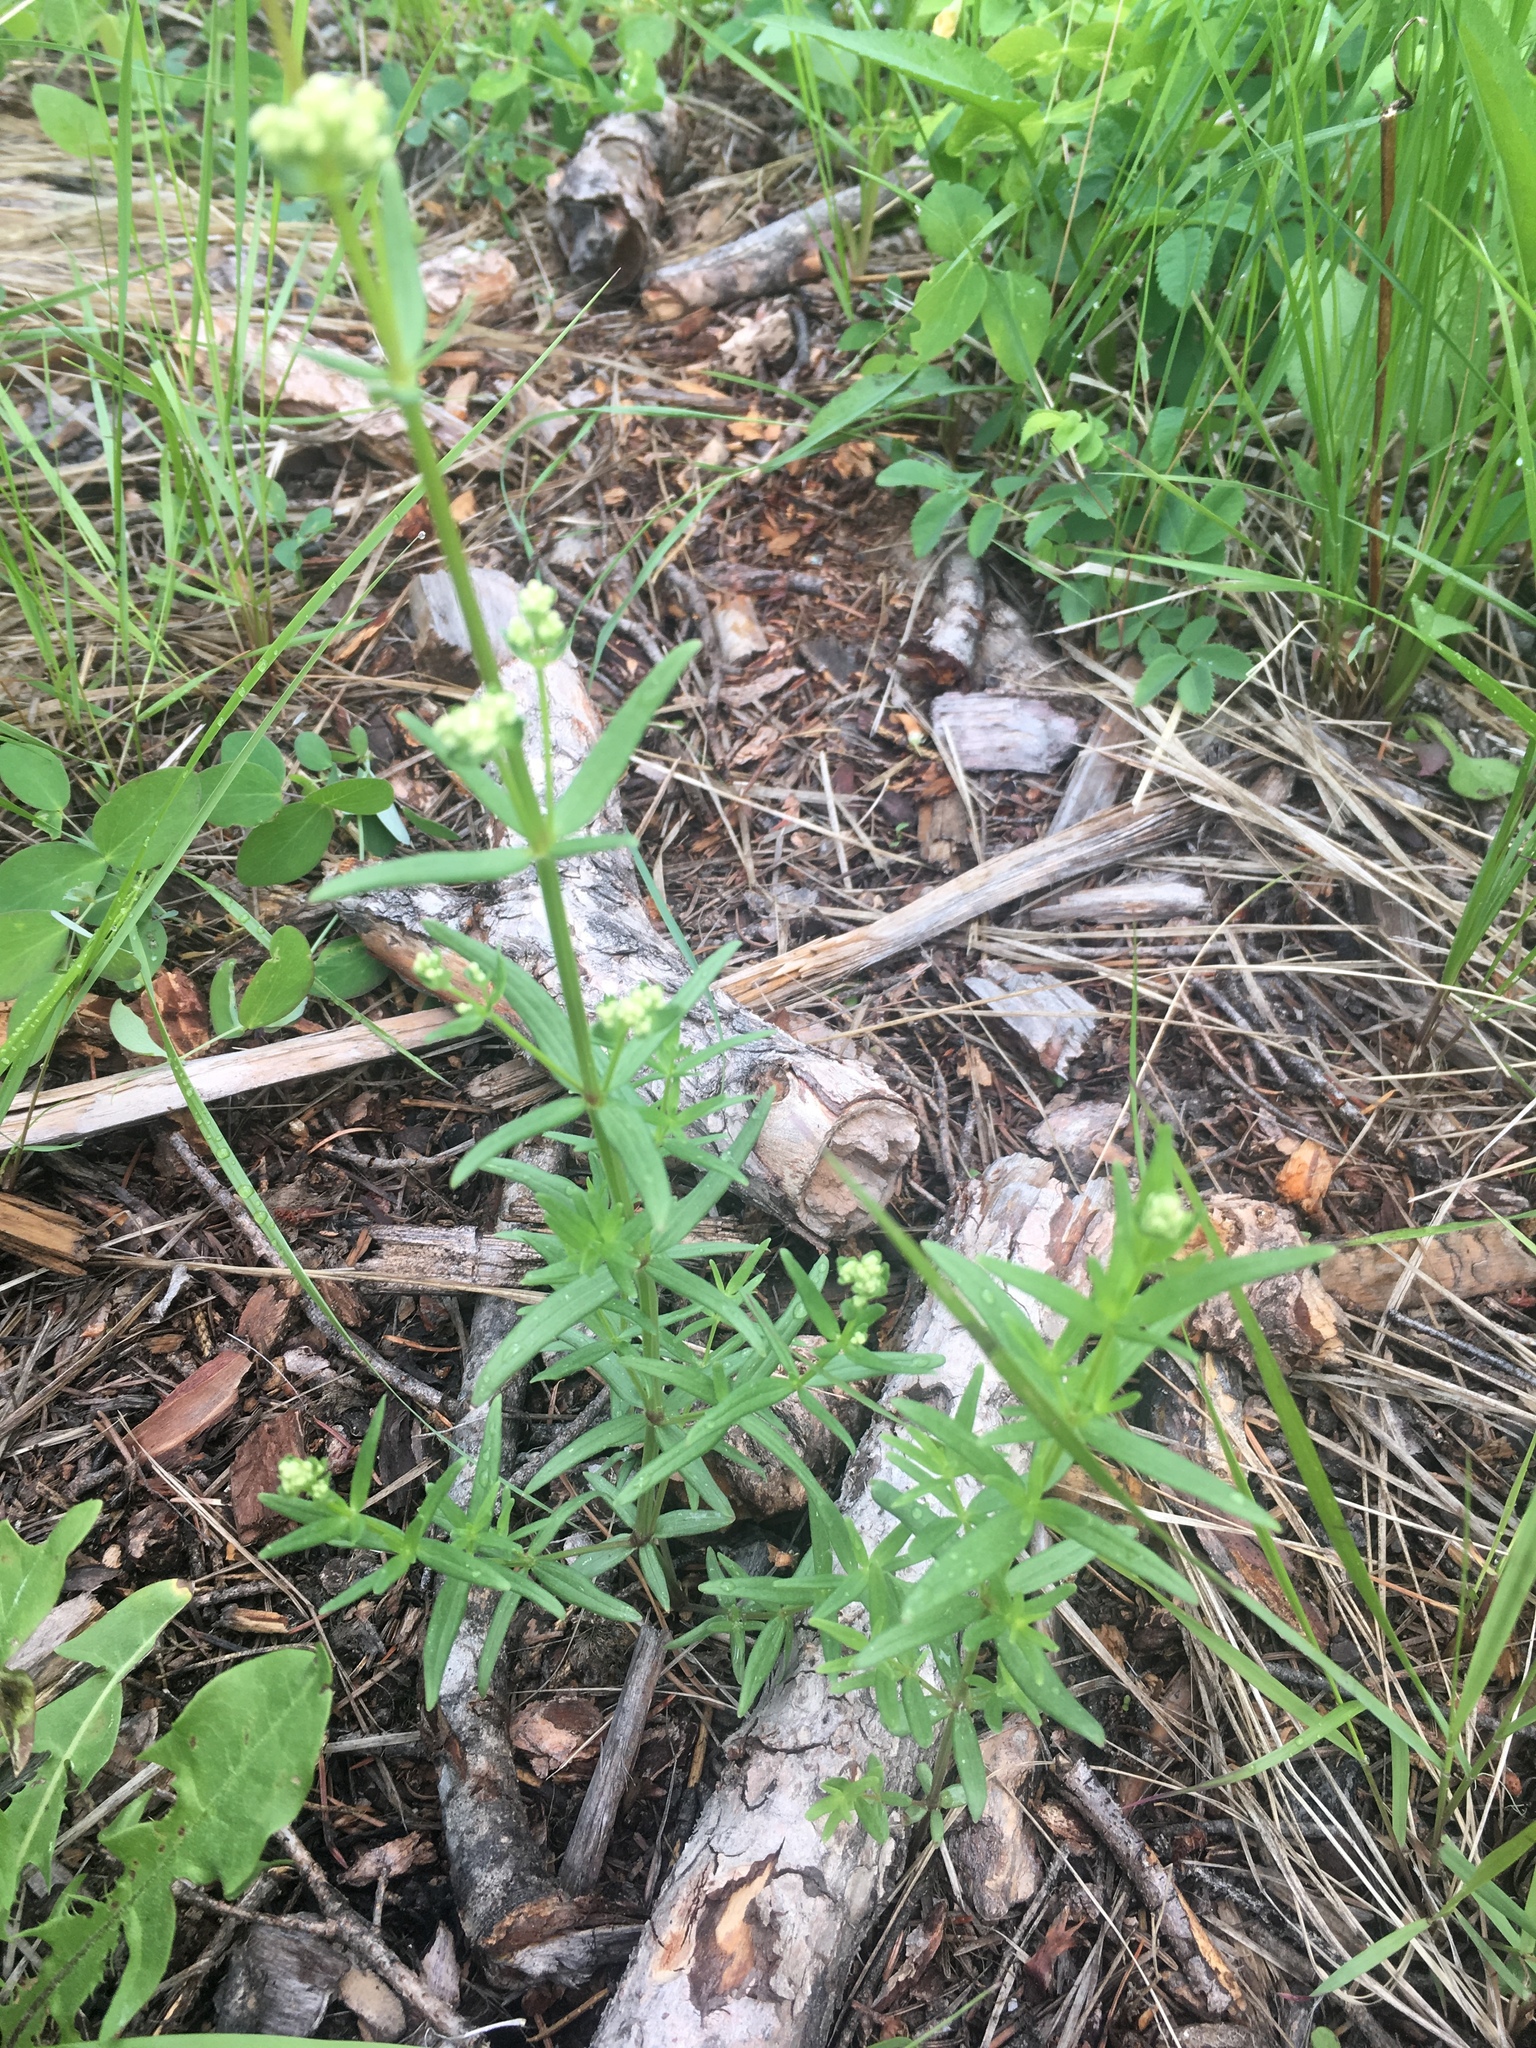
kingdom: Plantae
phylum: Tracheophyta
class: Magnoliopsida
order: Gentianales
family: Rubiaceae
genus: Galium
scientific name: Galium boreale
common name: Northern bedstraw
